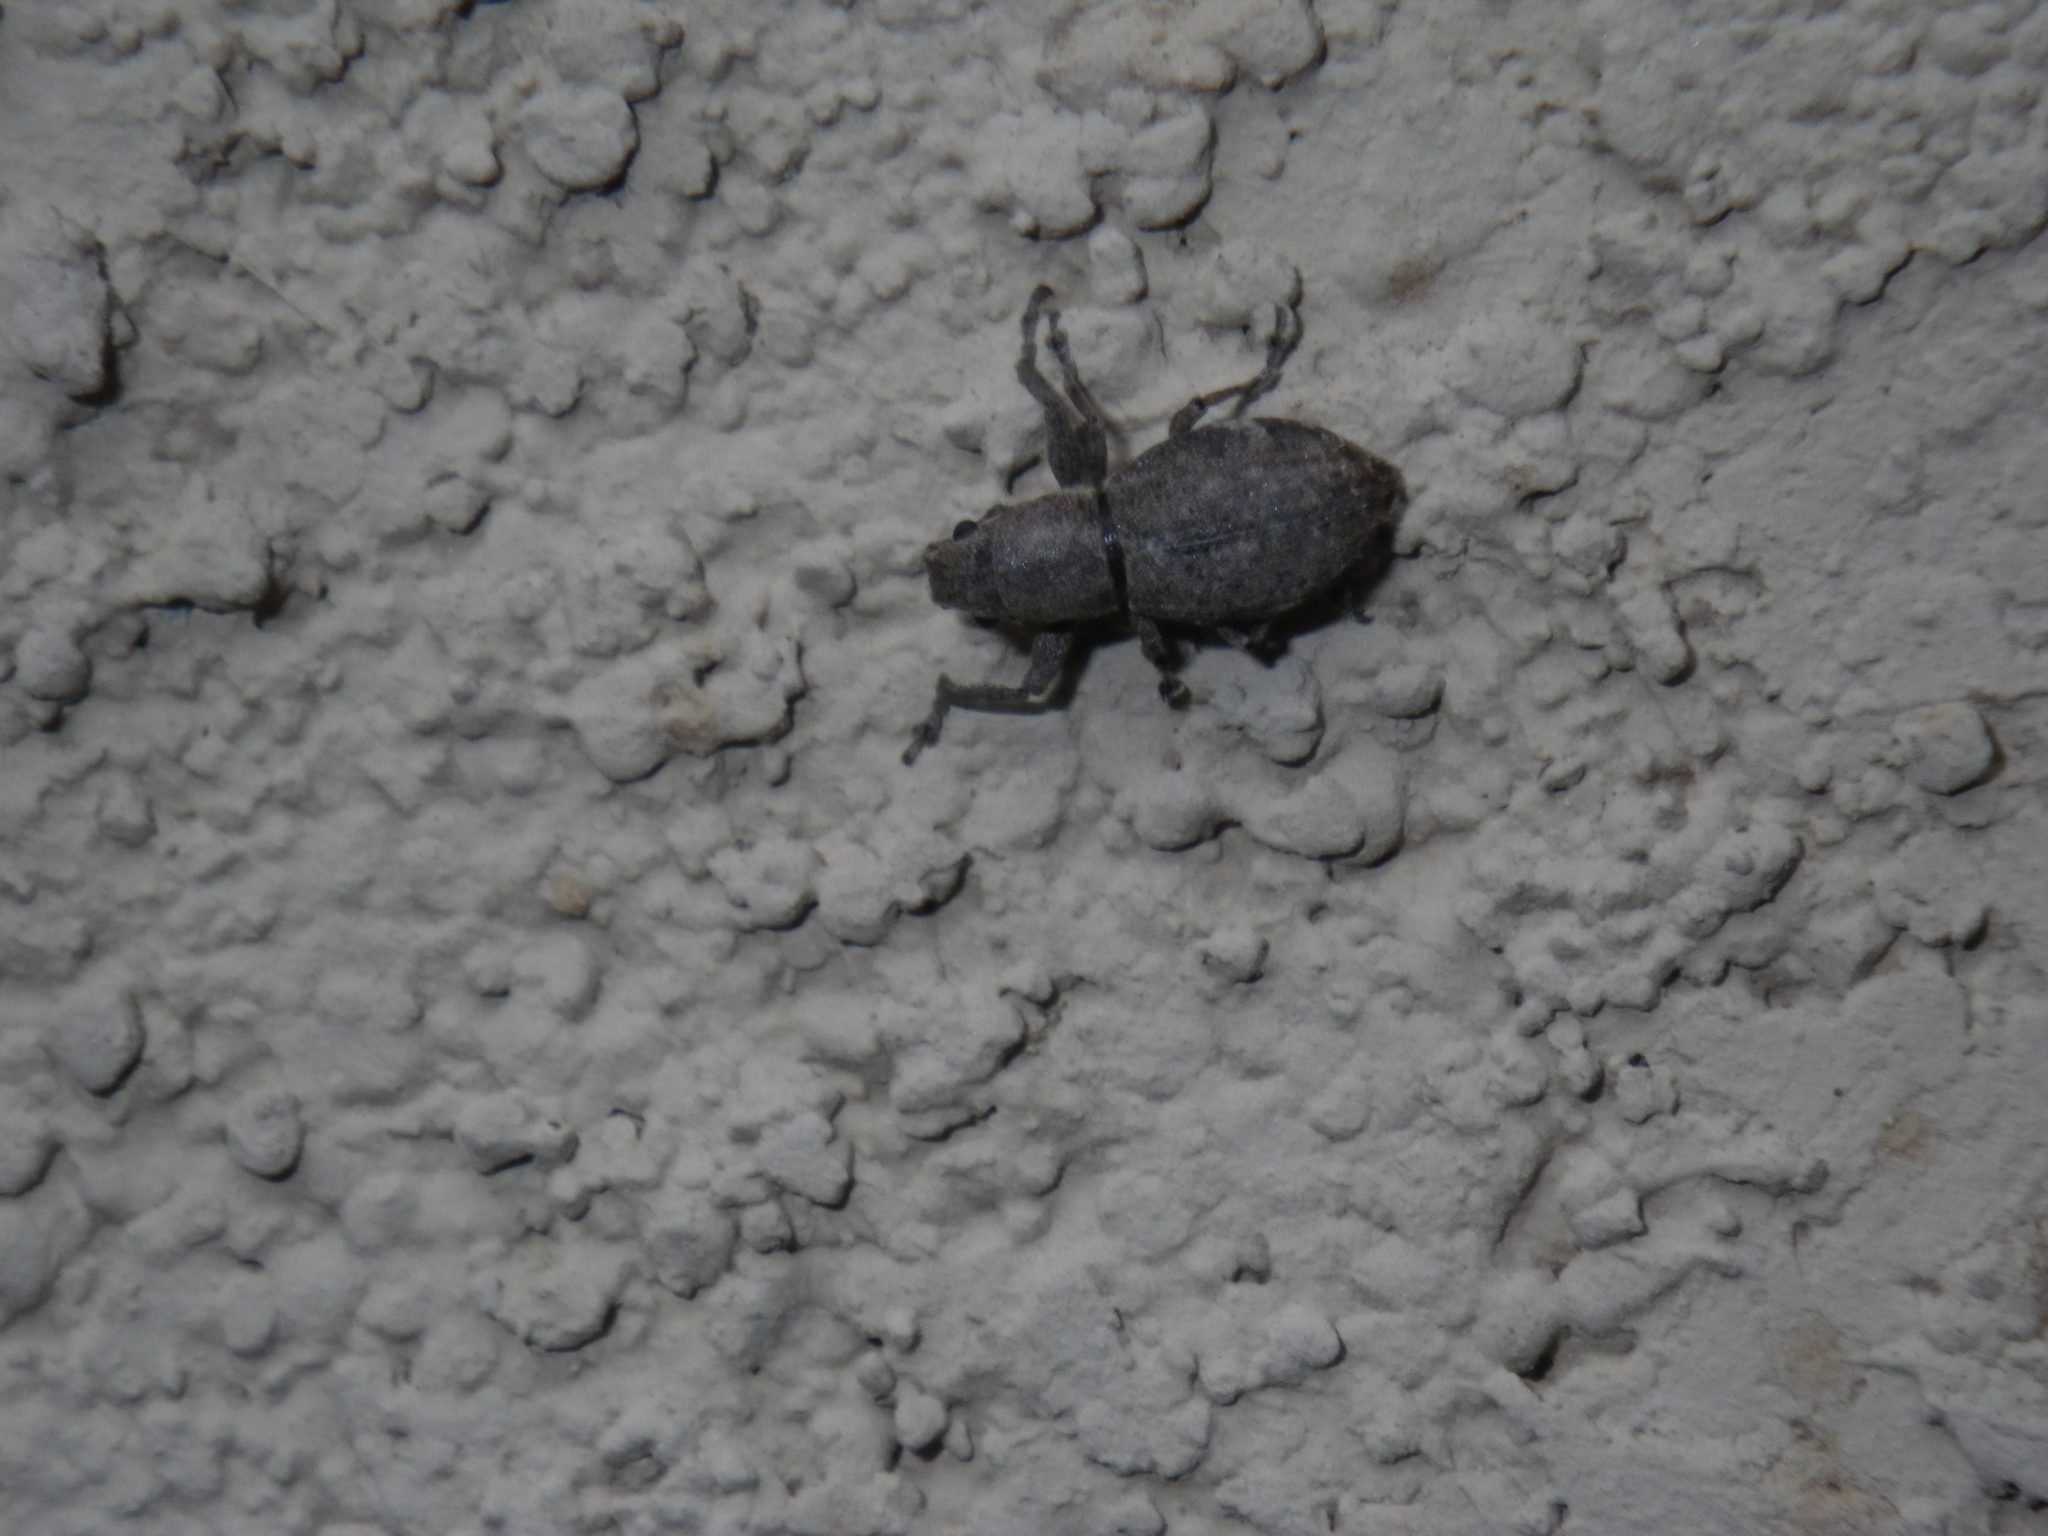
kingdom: Animalia
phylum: Arthropoda
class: Insecta
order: Coleoptera
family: Curculionidae
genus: Naupactus
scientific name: Naupactus cervinus
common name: Fuller rose beetle
